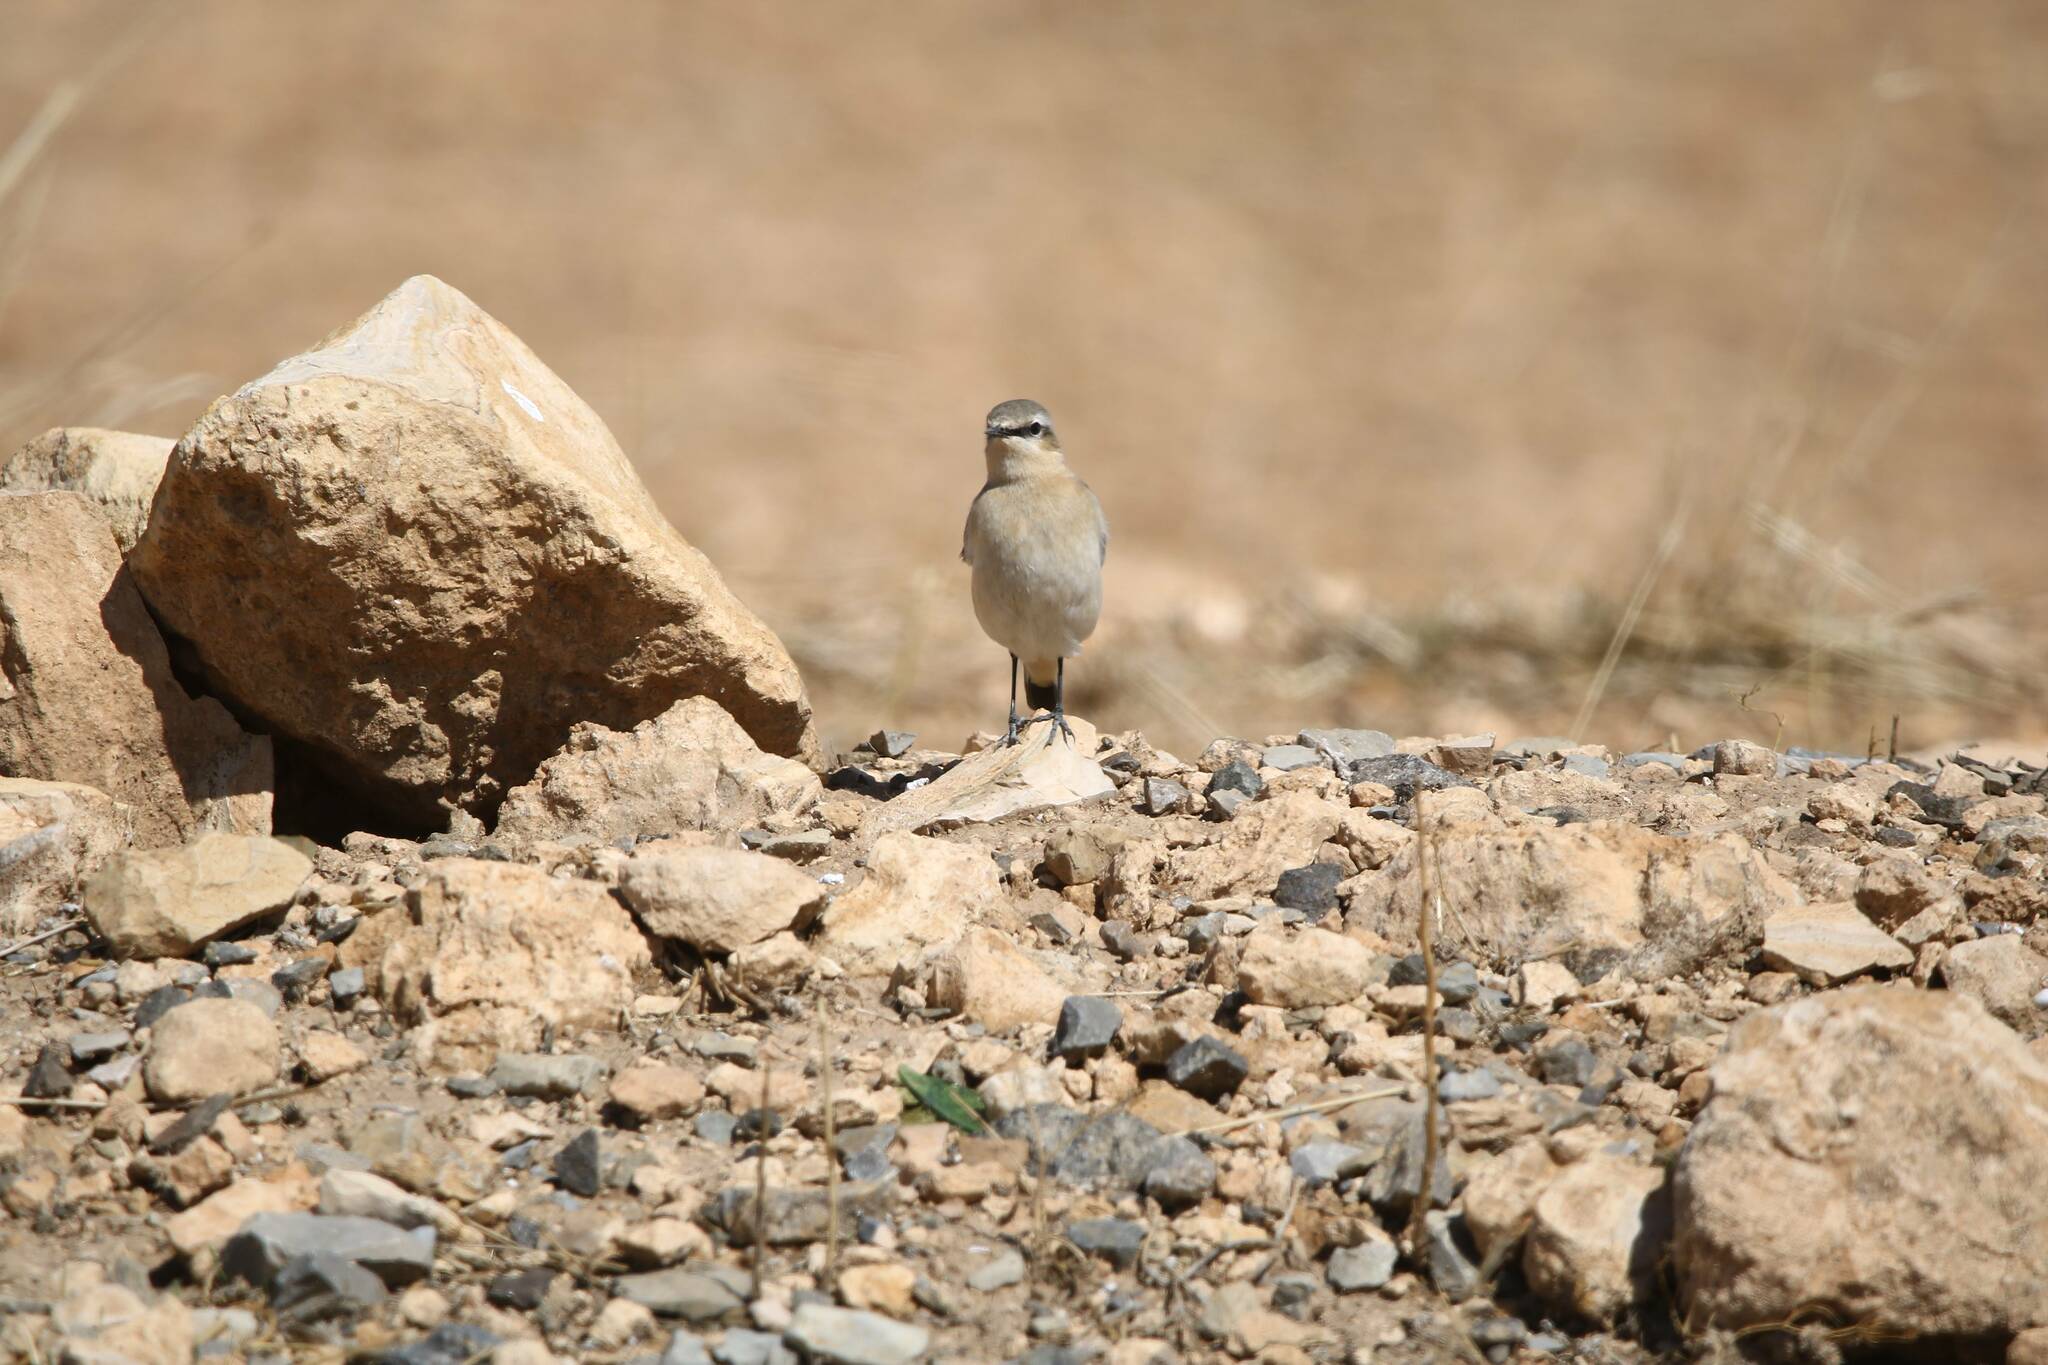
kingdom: Animalia
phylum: Chordata
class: Aves
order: Passeriformes
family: Muscicapidae
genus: Oenanthe
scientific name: Oenanthe oenanthe
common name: Northern wheatear
